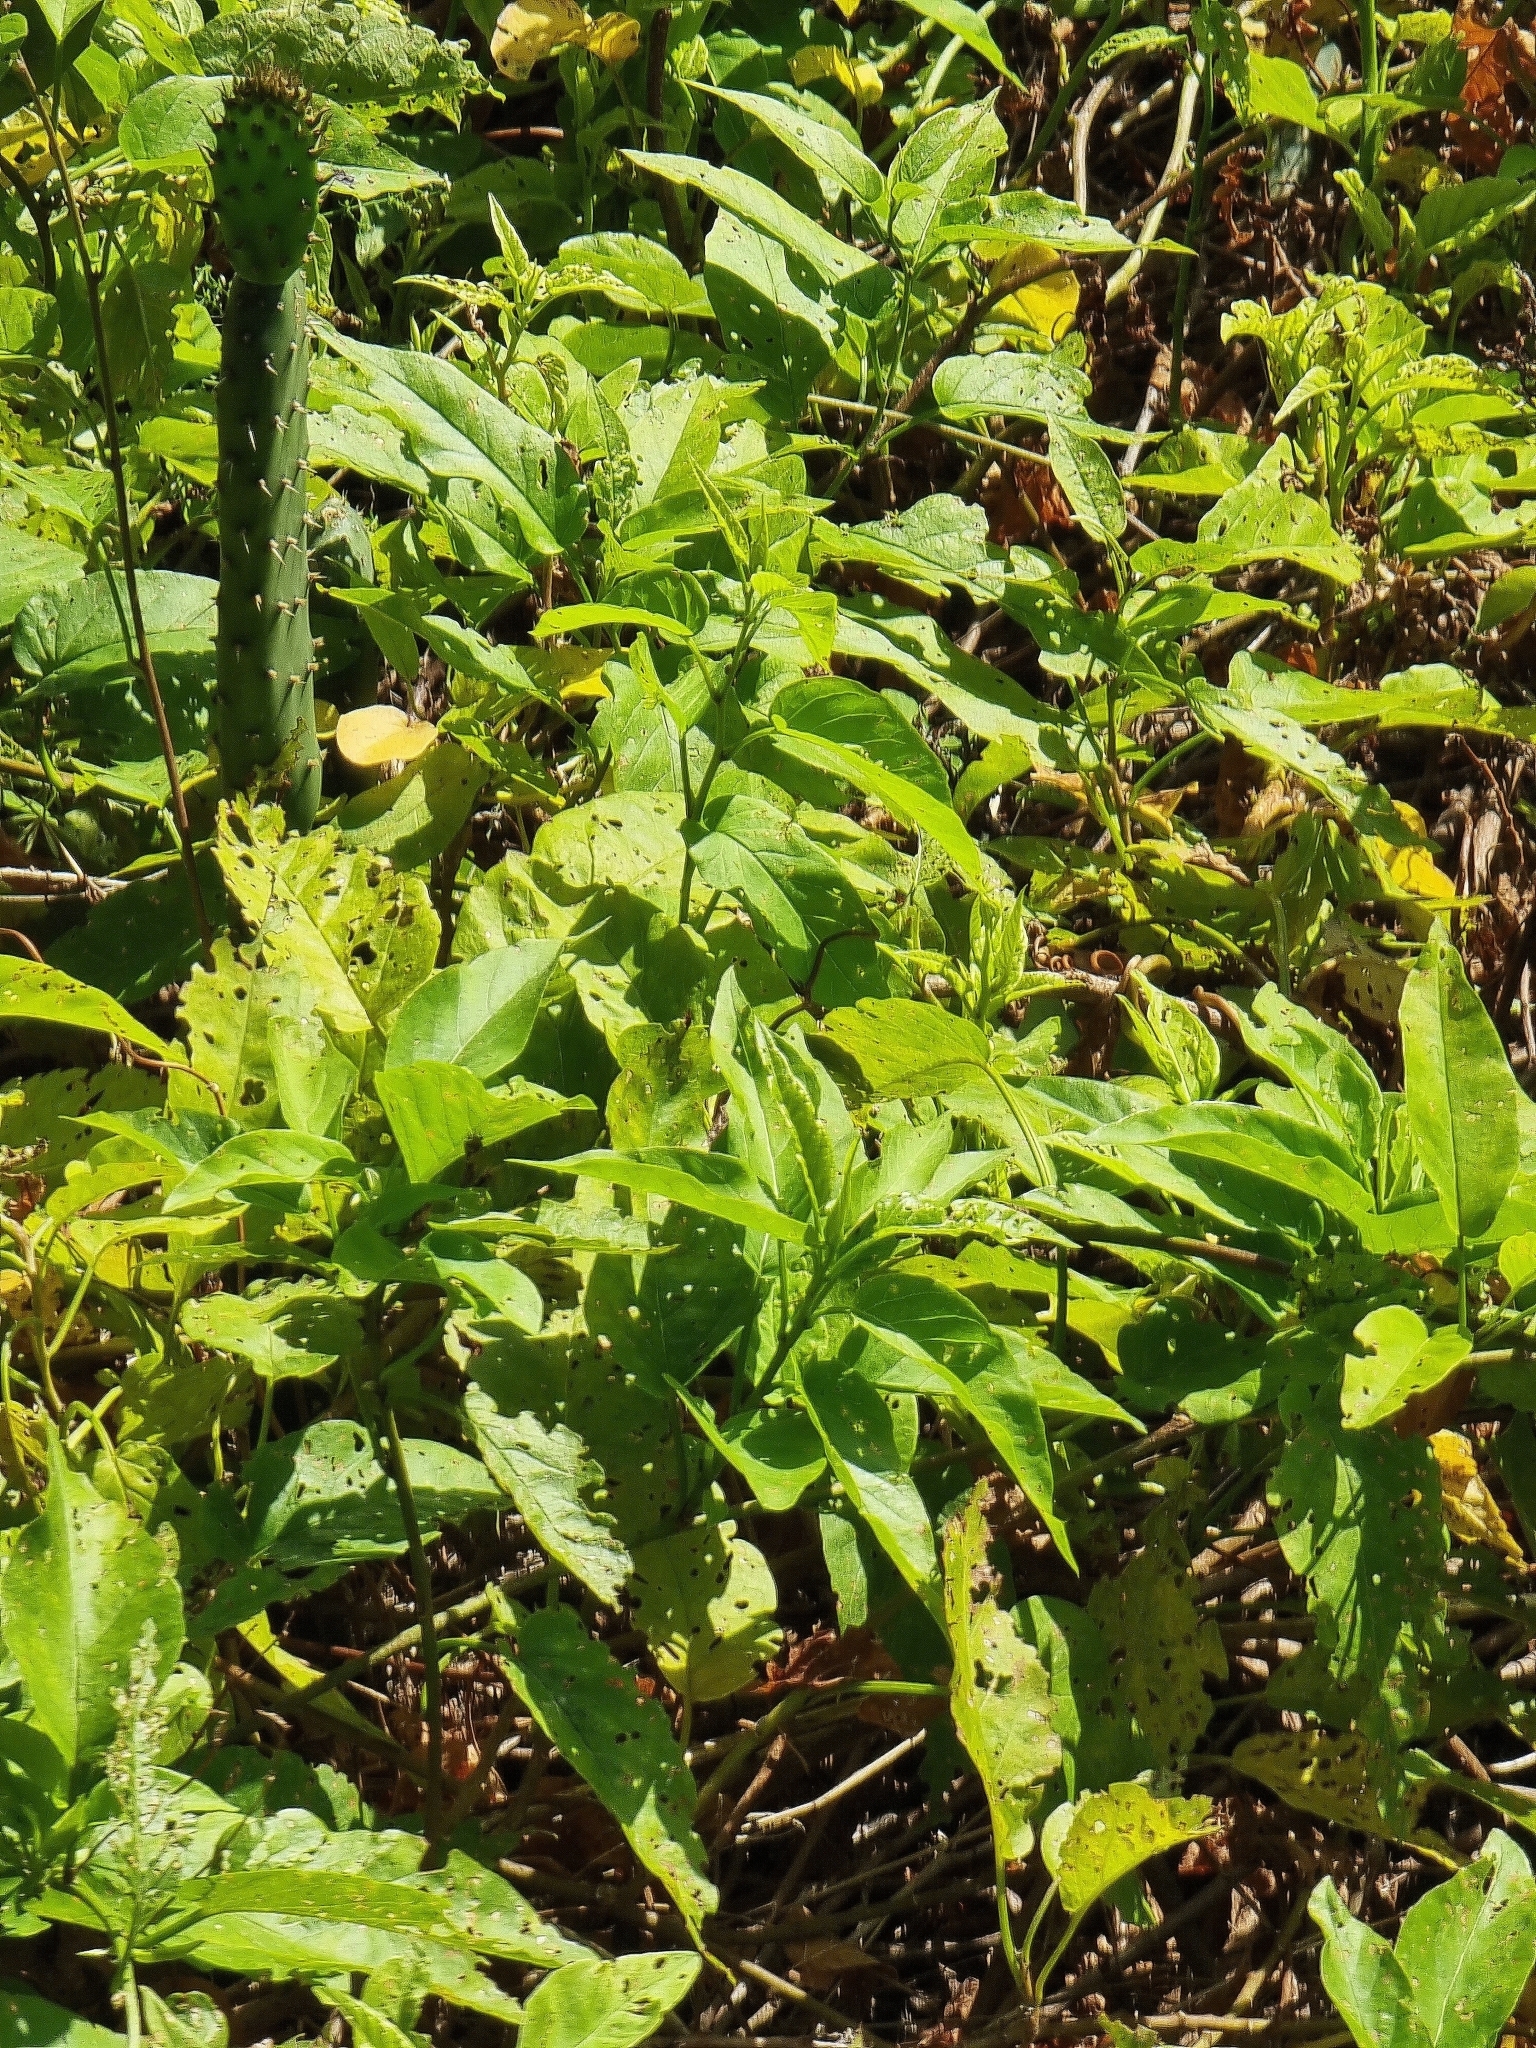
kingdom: Plantae
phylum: Tracheophyta
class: Magnoliopsida
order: Solanales
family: Convolvulaceae
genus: Convolvulus
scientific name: Convolvulus massonii
